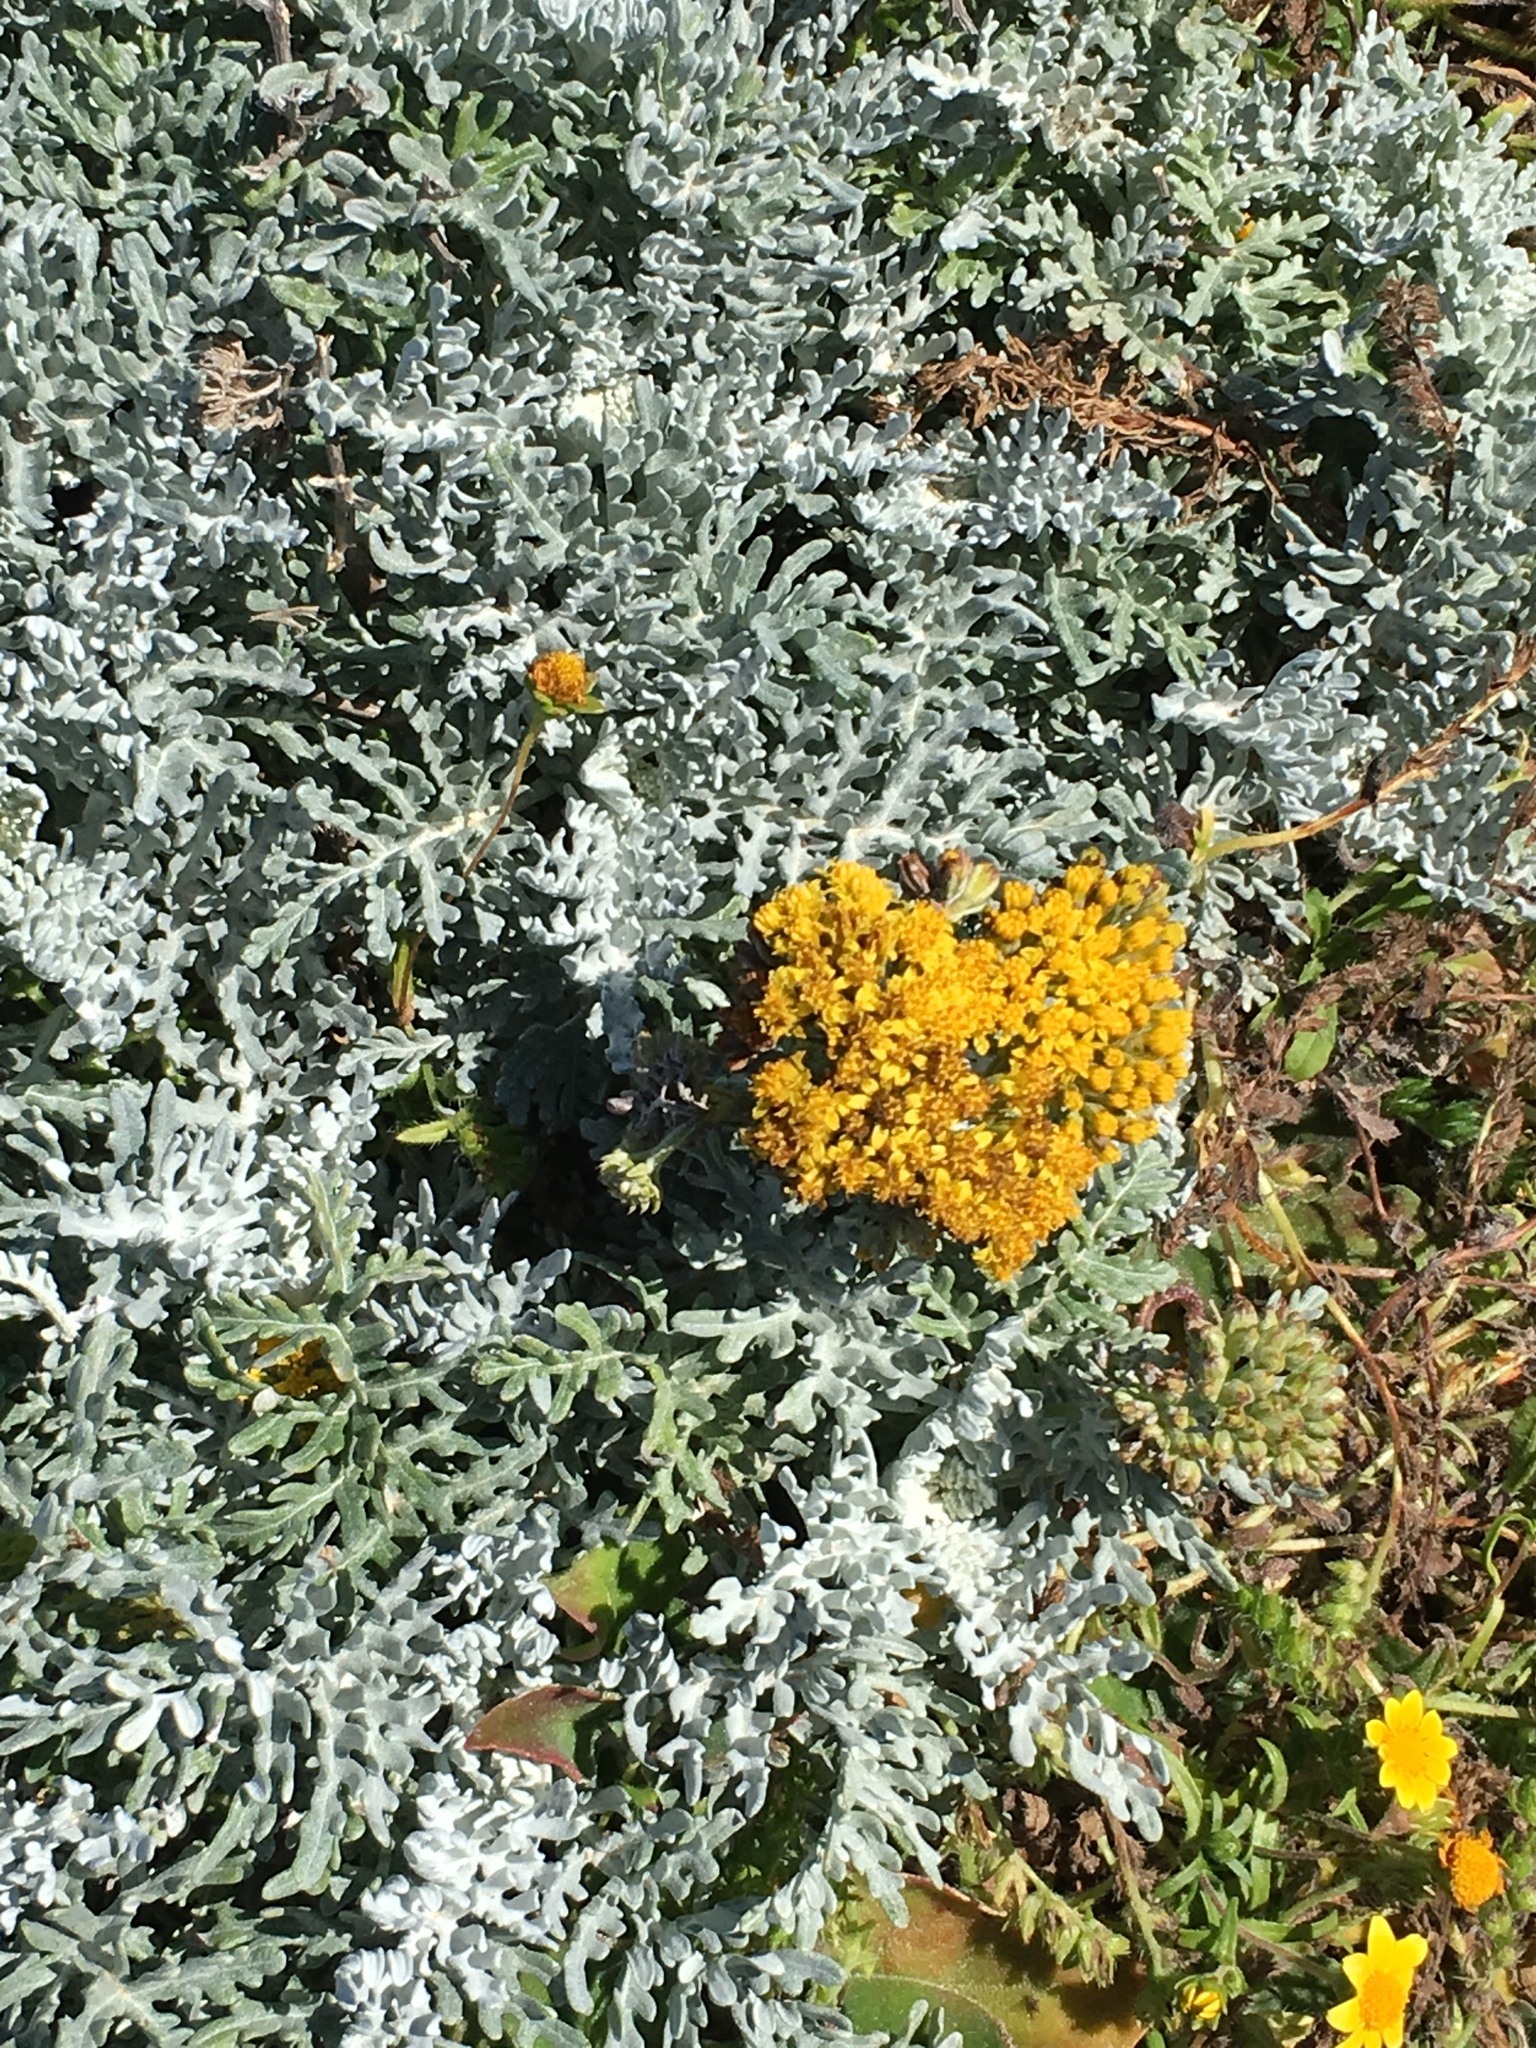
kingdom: Plantae
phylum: Tracheophyta
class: Magnoliopsida
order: Asterales
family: Asteraceae
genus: Constancea
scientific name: Constancea nevinii
